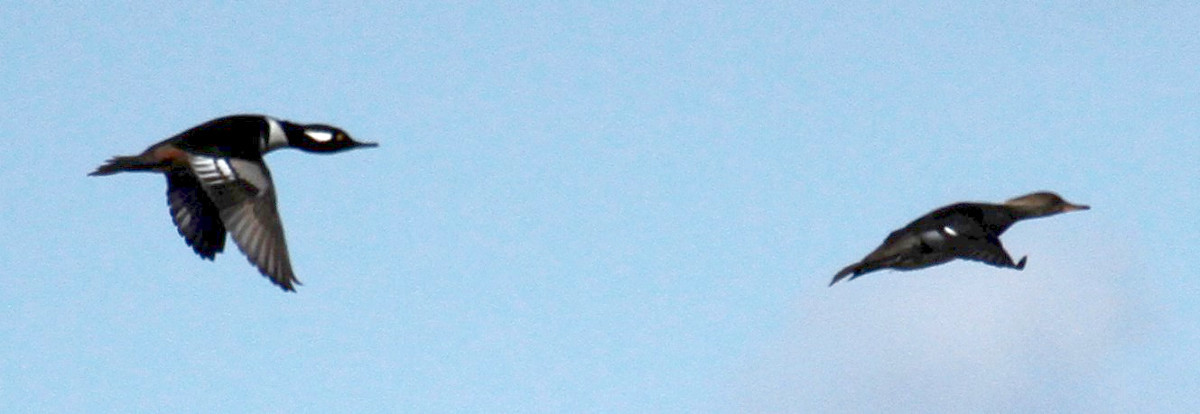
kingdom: Animalia
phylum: Chordata
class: Aves
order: Anseriformes
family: Anatidae
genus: Lophodytes
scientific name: Lophodytes cucullatus
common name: Hooded merganser
